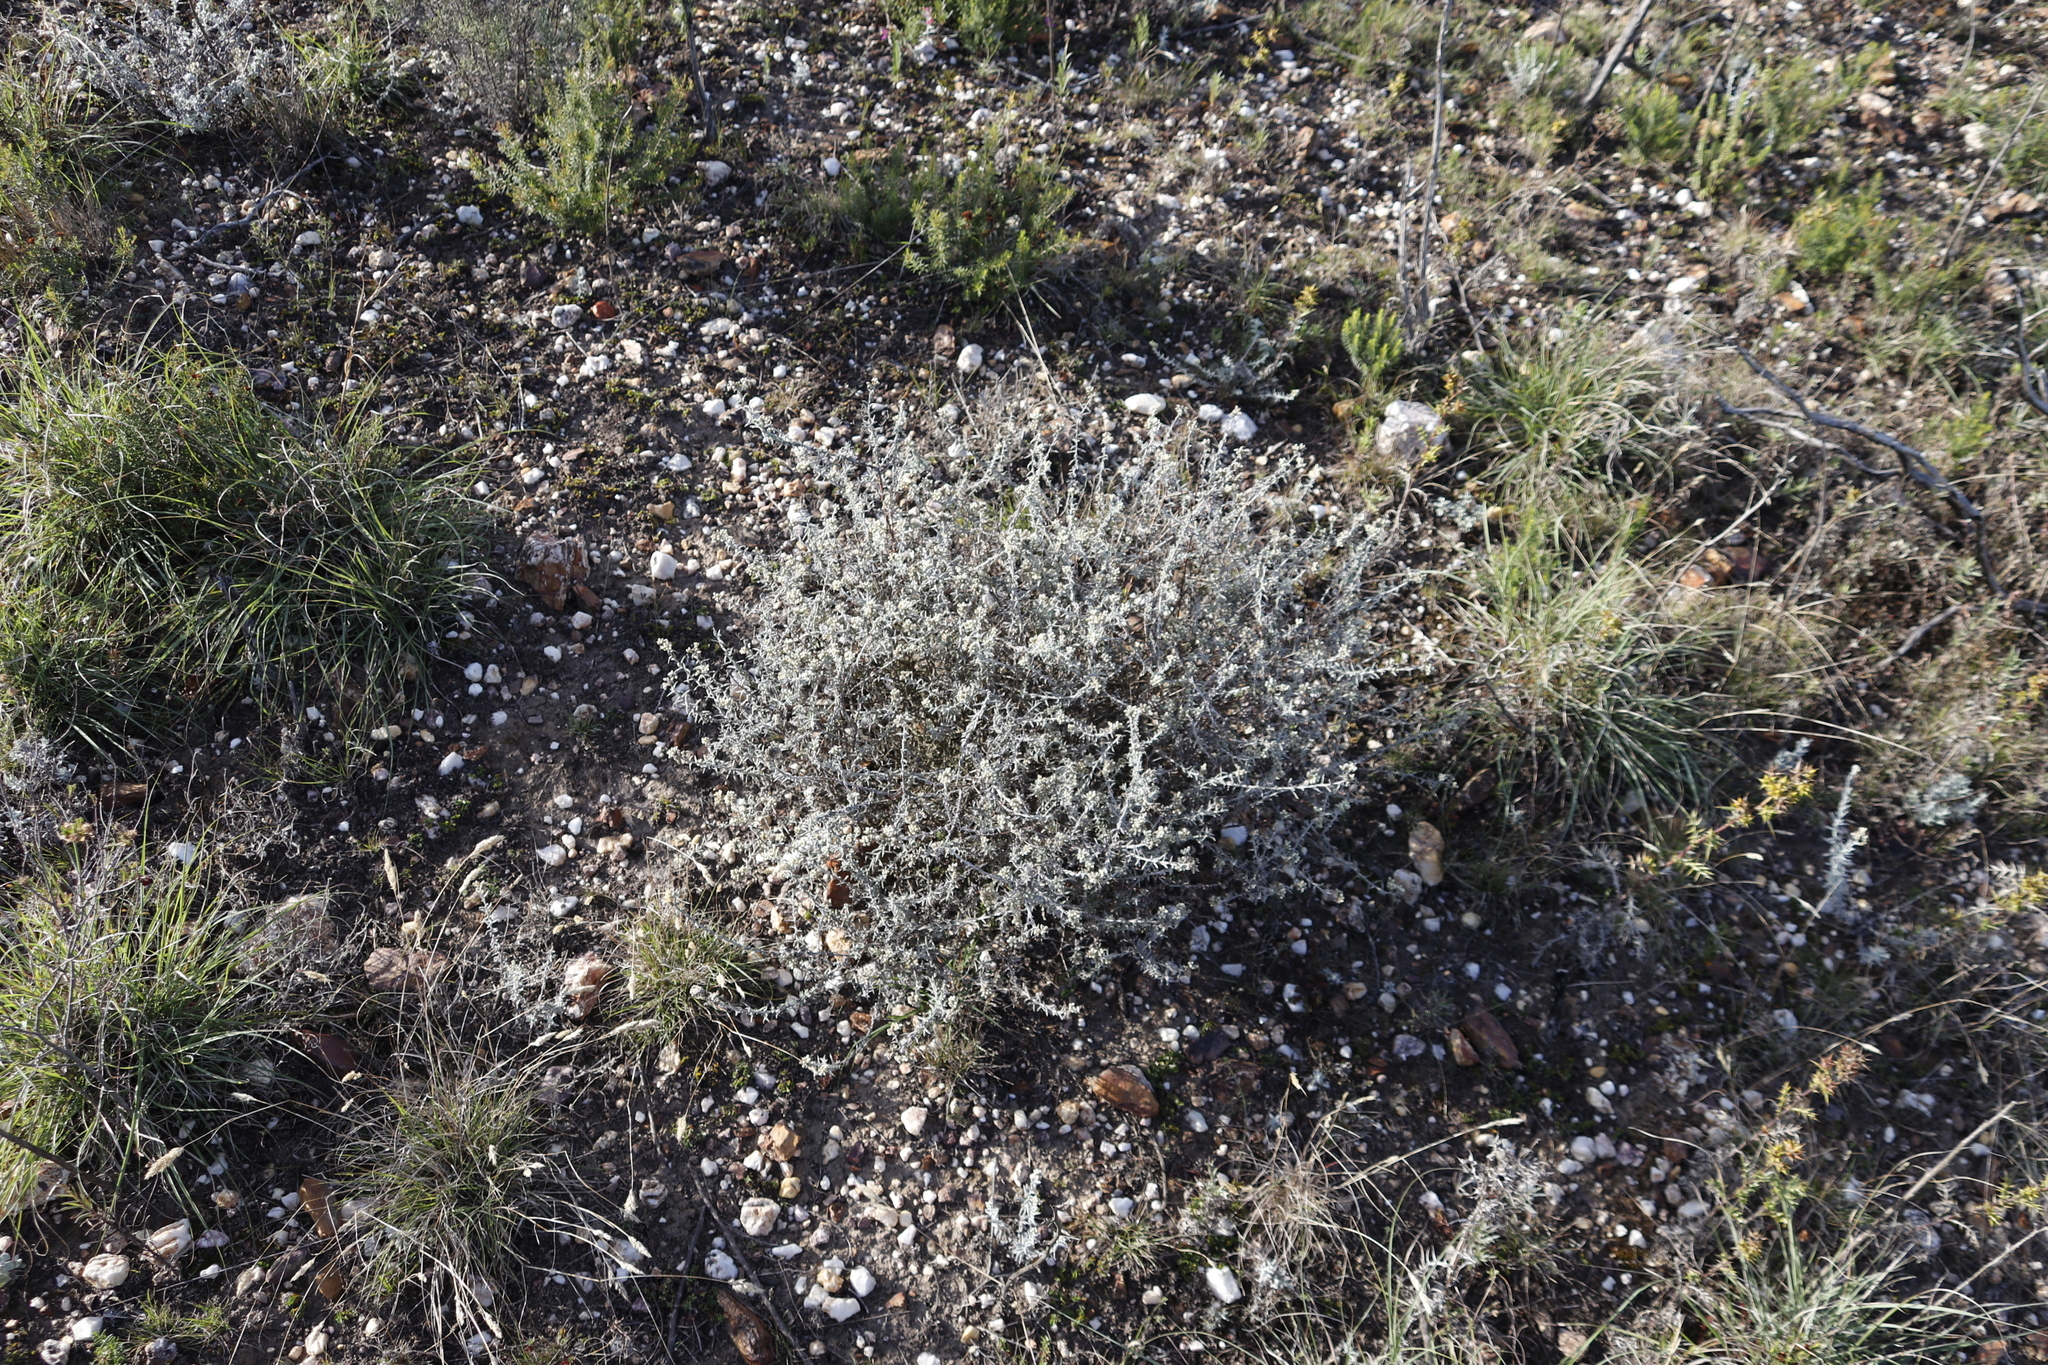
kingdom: Plantae
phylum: Tracheophyta
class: Magnoliopsida
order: Asterales
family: Asteraceae
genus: Helichrysum
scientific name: Helichrysum rosum
